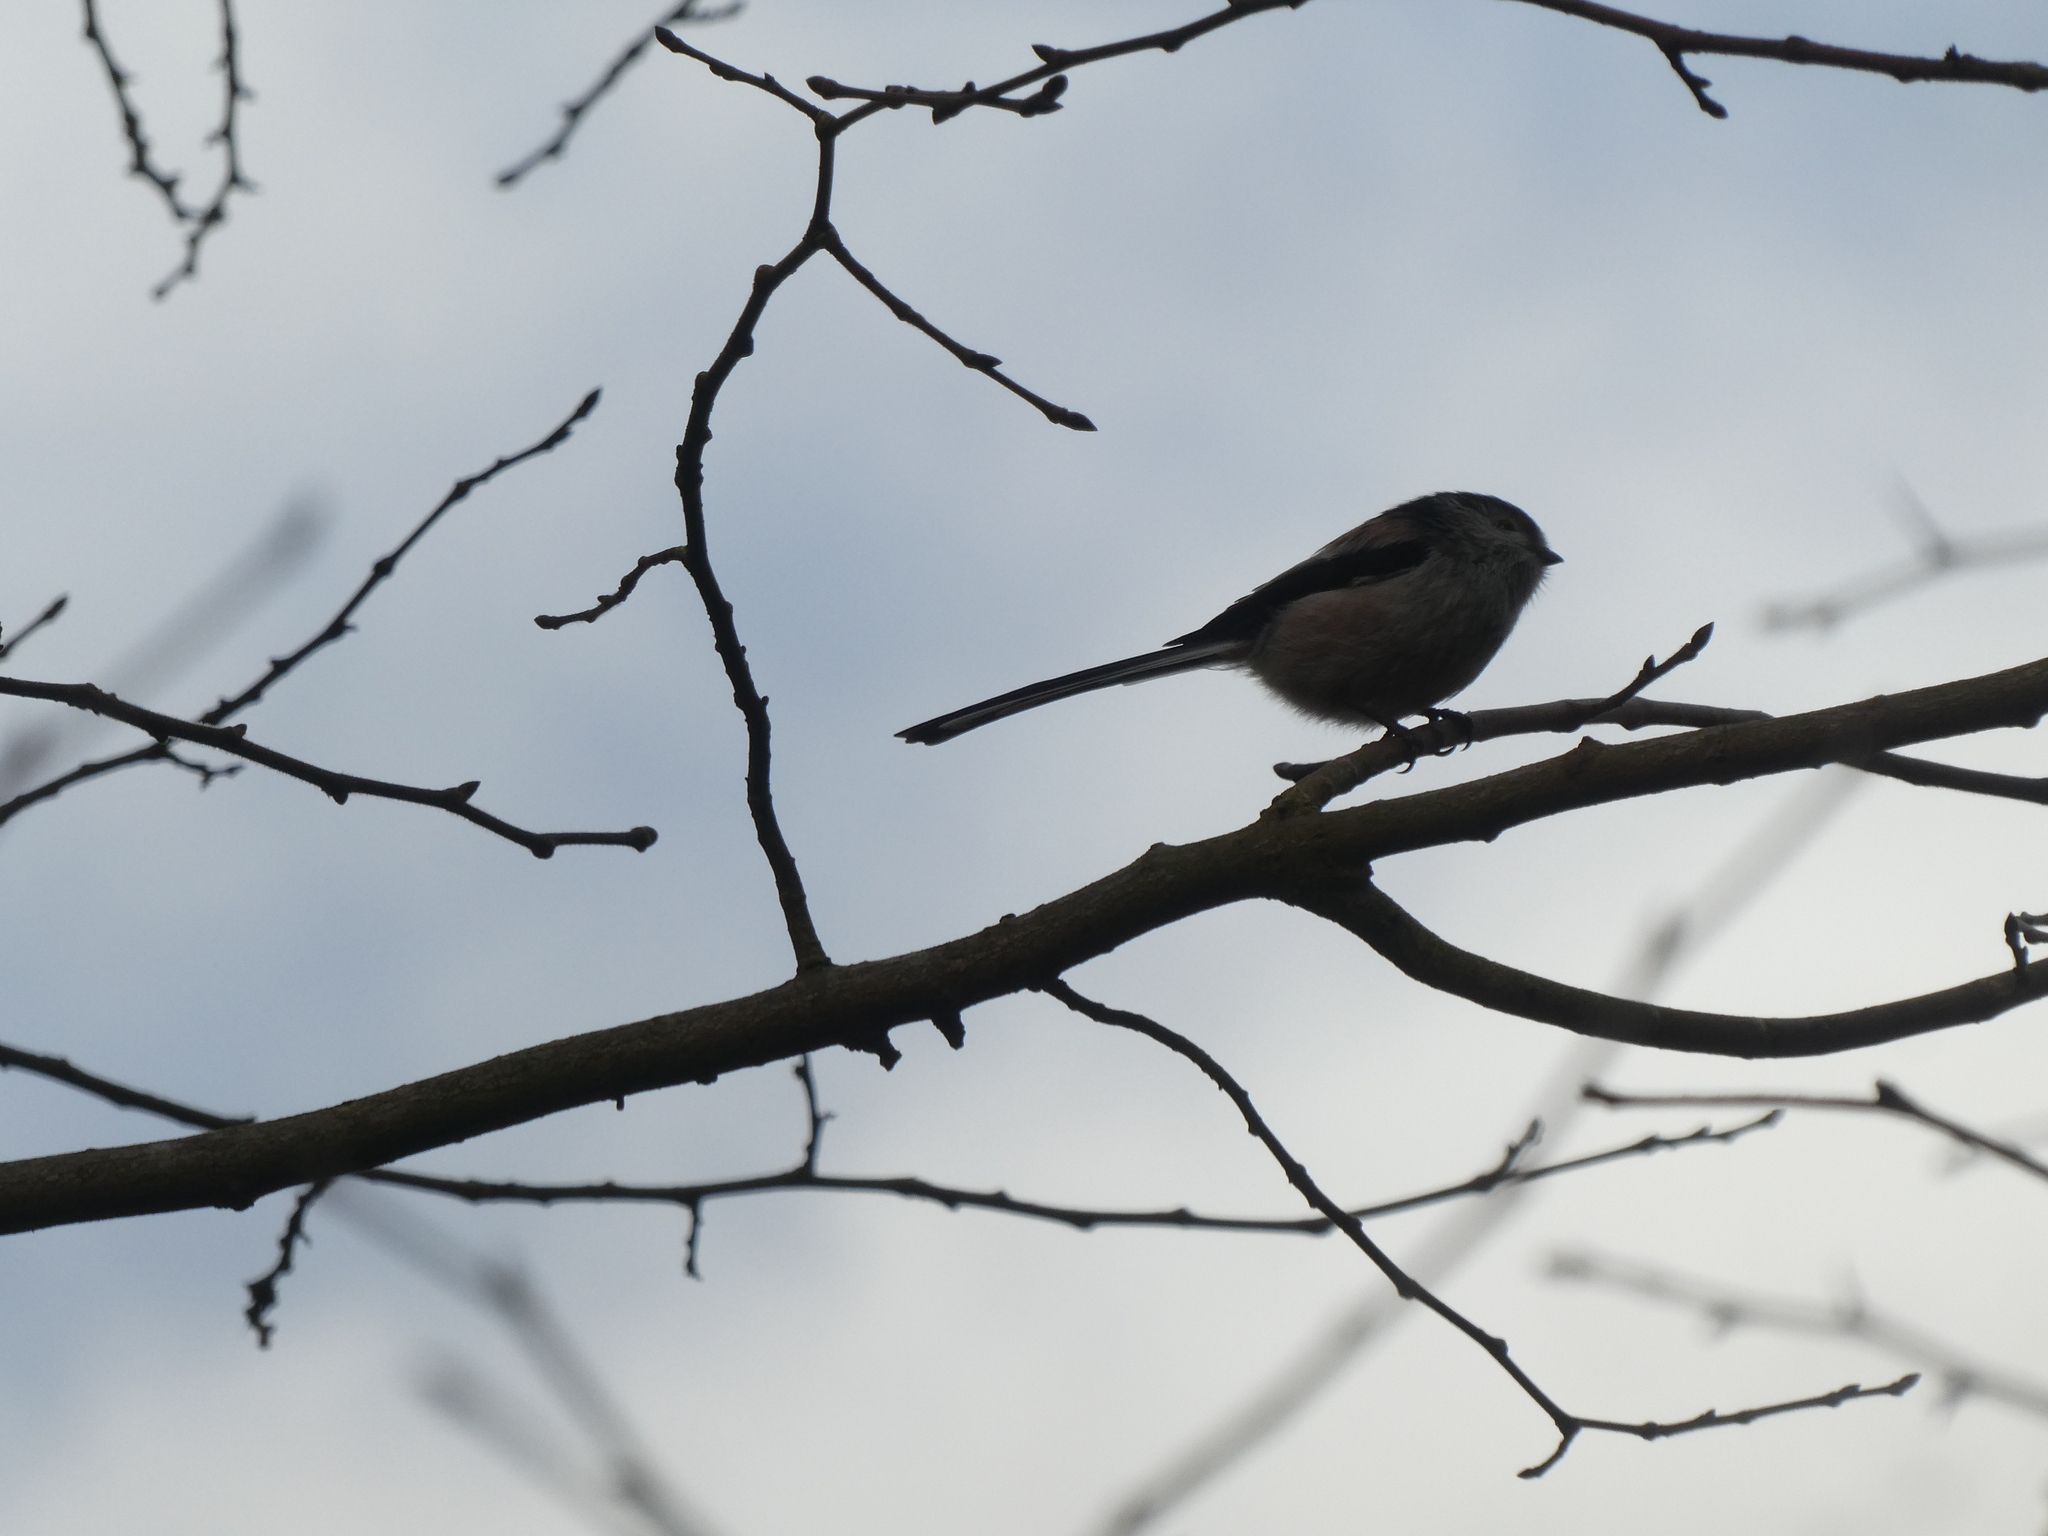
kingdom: Animalia
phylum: Chordata
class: Aves
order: Passeriformes
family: Aegithalidae
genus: Aegithalos
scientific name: Aegithalos caudatus
